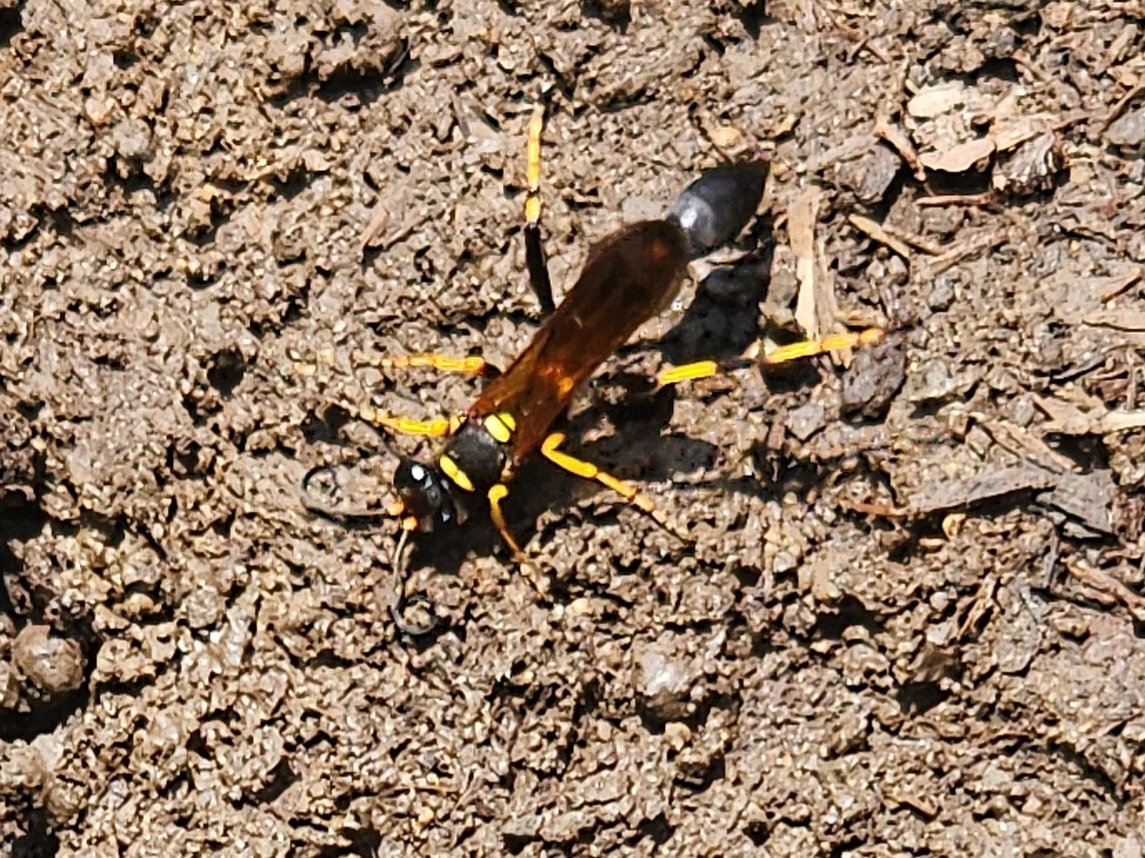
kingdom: Animalia
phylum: Arthropoda
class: Insecta
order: Hymenoptera
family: Sphecidae
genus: Sceliphron
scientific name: Sceliphron caementarium
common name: Mud dauber
